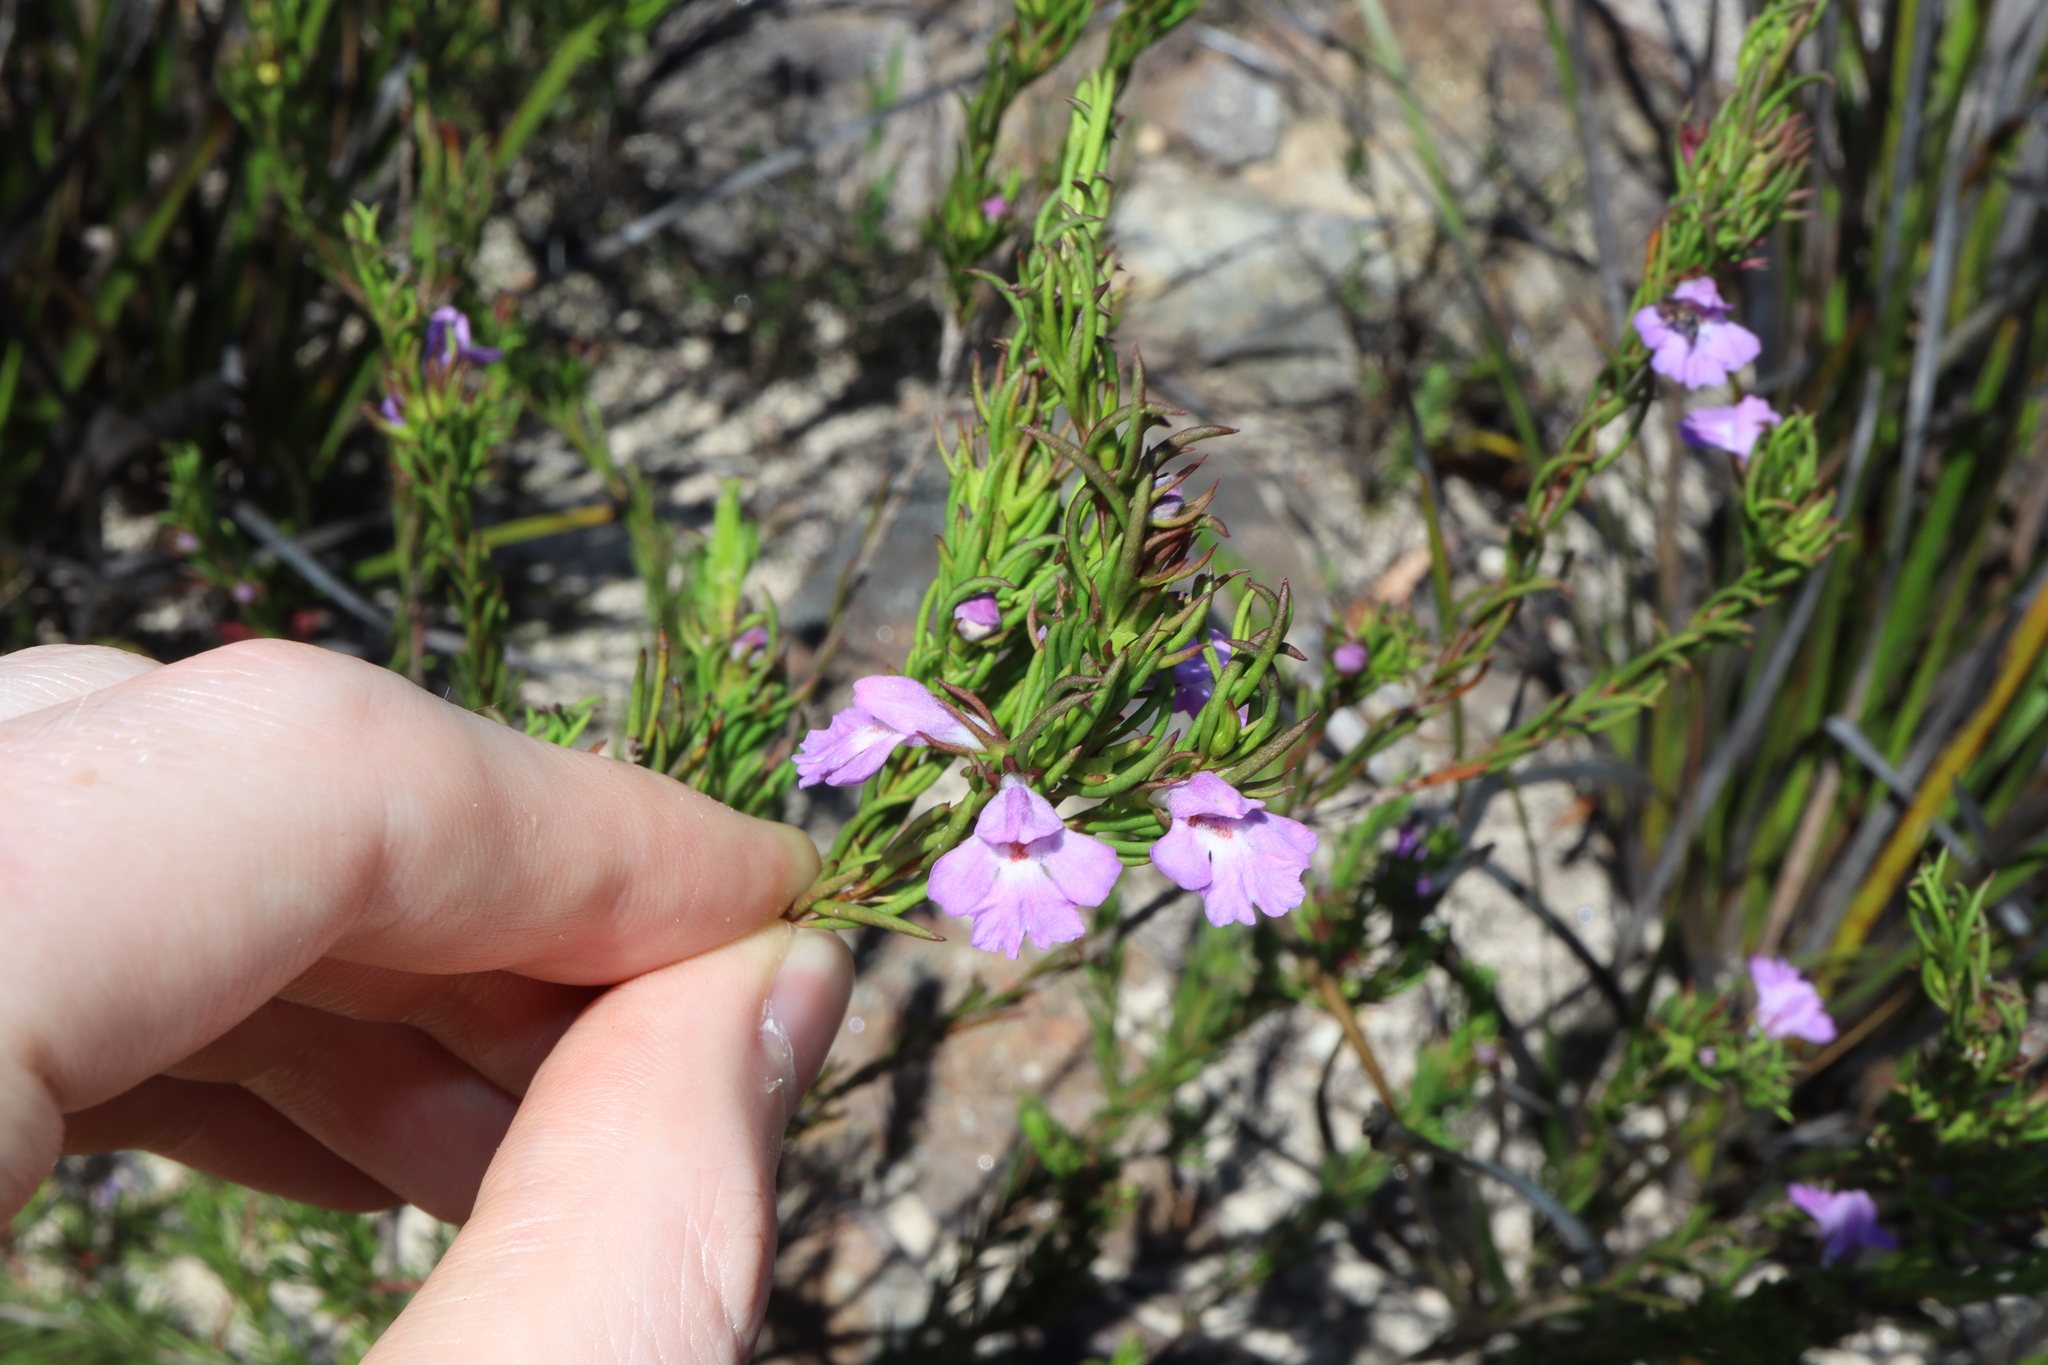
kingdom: Plantae
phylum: Tracheophyta
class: Magnoliopsida
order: Lamiales
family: Lamiaceae
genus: Hemigenia
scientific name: Hemigenia purpurea
